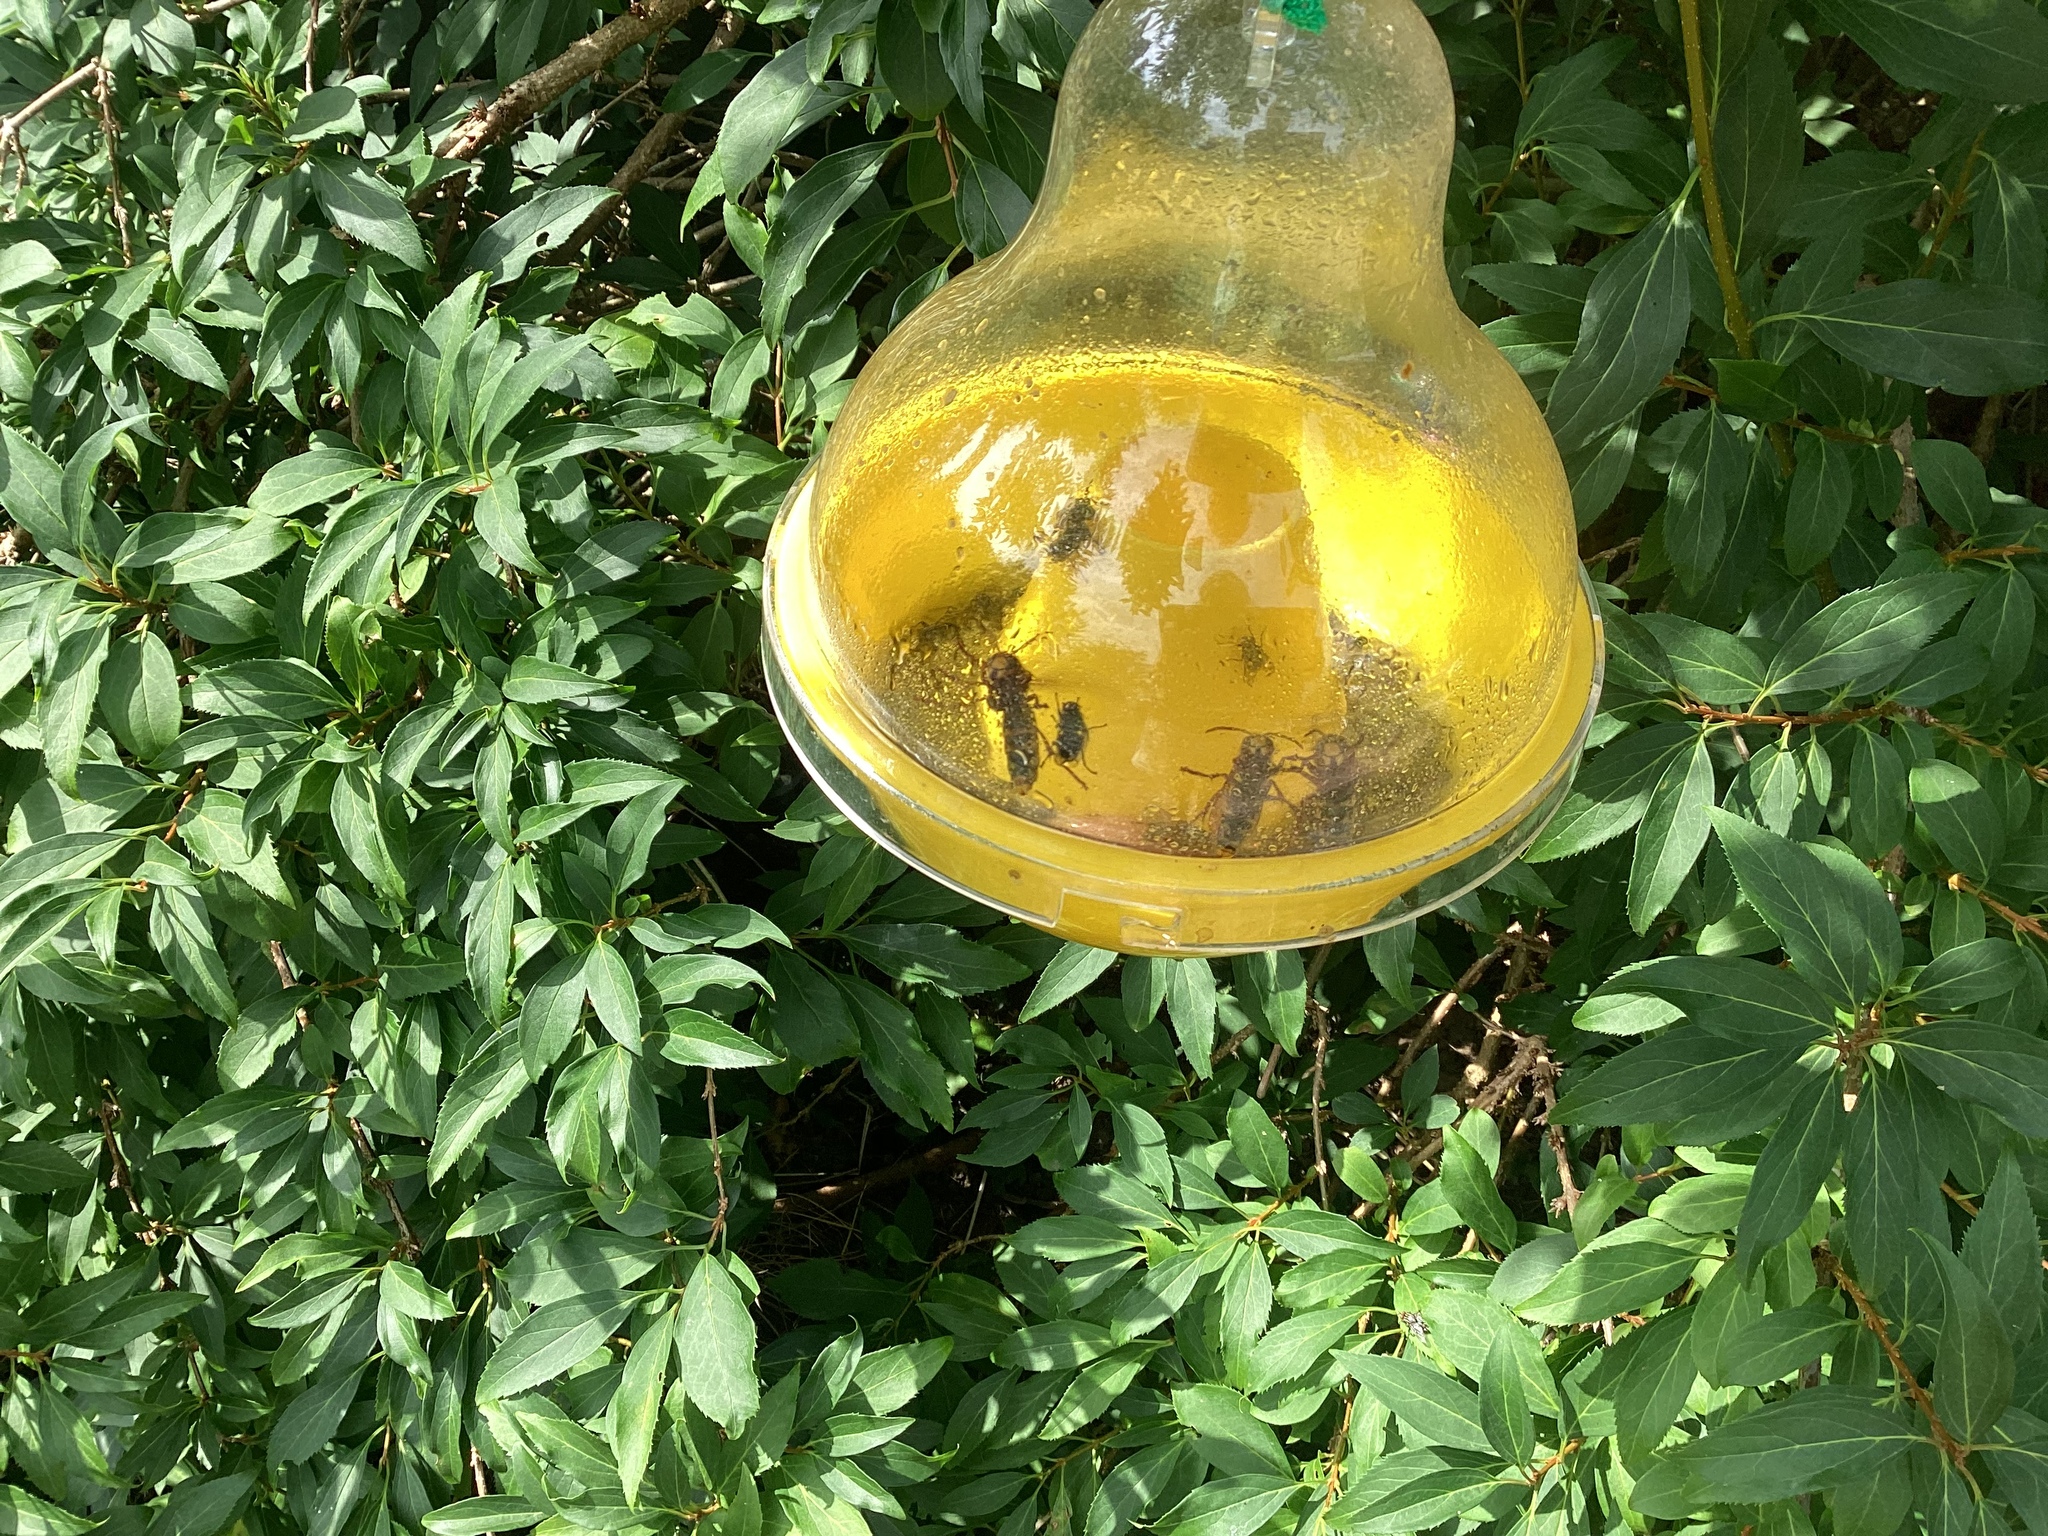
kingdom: Animalia
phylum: Arthropoda
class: Insecta
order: Hymenoptera
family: Vespidae
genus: Vespa
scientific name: Vespa crabro
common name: Hornet
